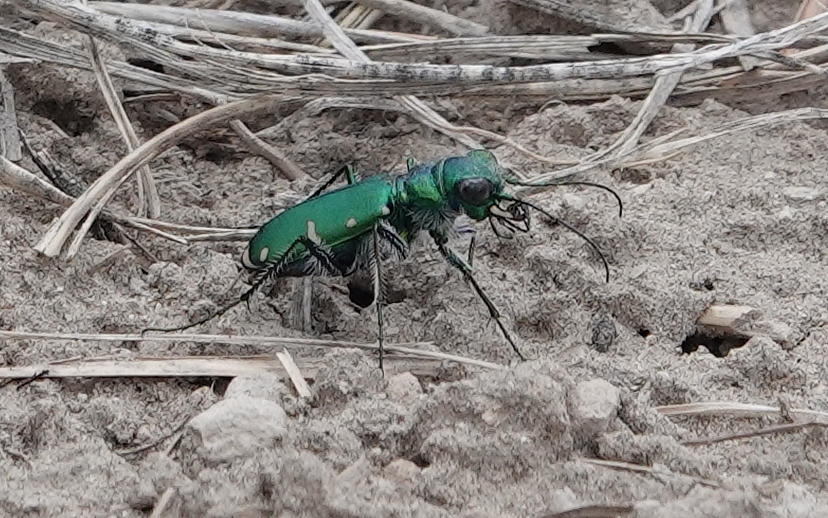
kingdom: Animalia
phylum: Arthropoda
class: Insecta
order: Coleoptera
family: Carabidae
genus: Cicindela
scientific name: Cicindela denverensis
